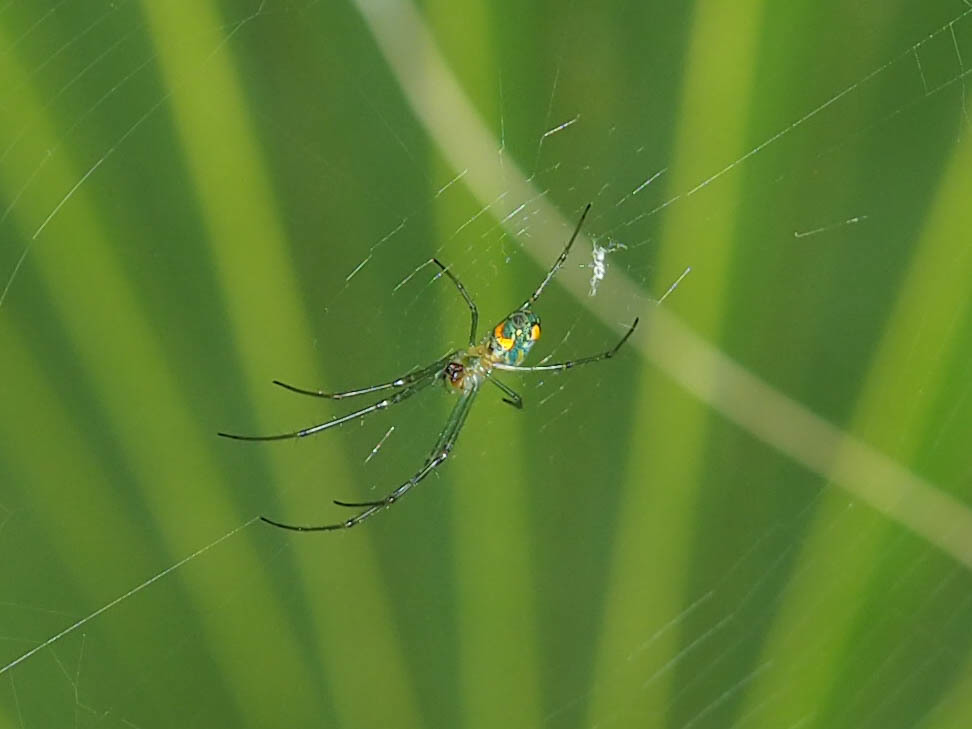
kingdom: Animalia
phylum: Arthropoda
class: Arachnida
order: Araneae
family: Tetragnathidae
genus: Leucauge
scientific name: Leucauge argyrobapta
